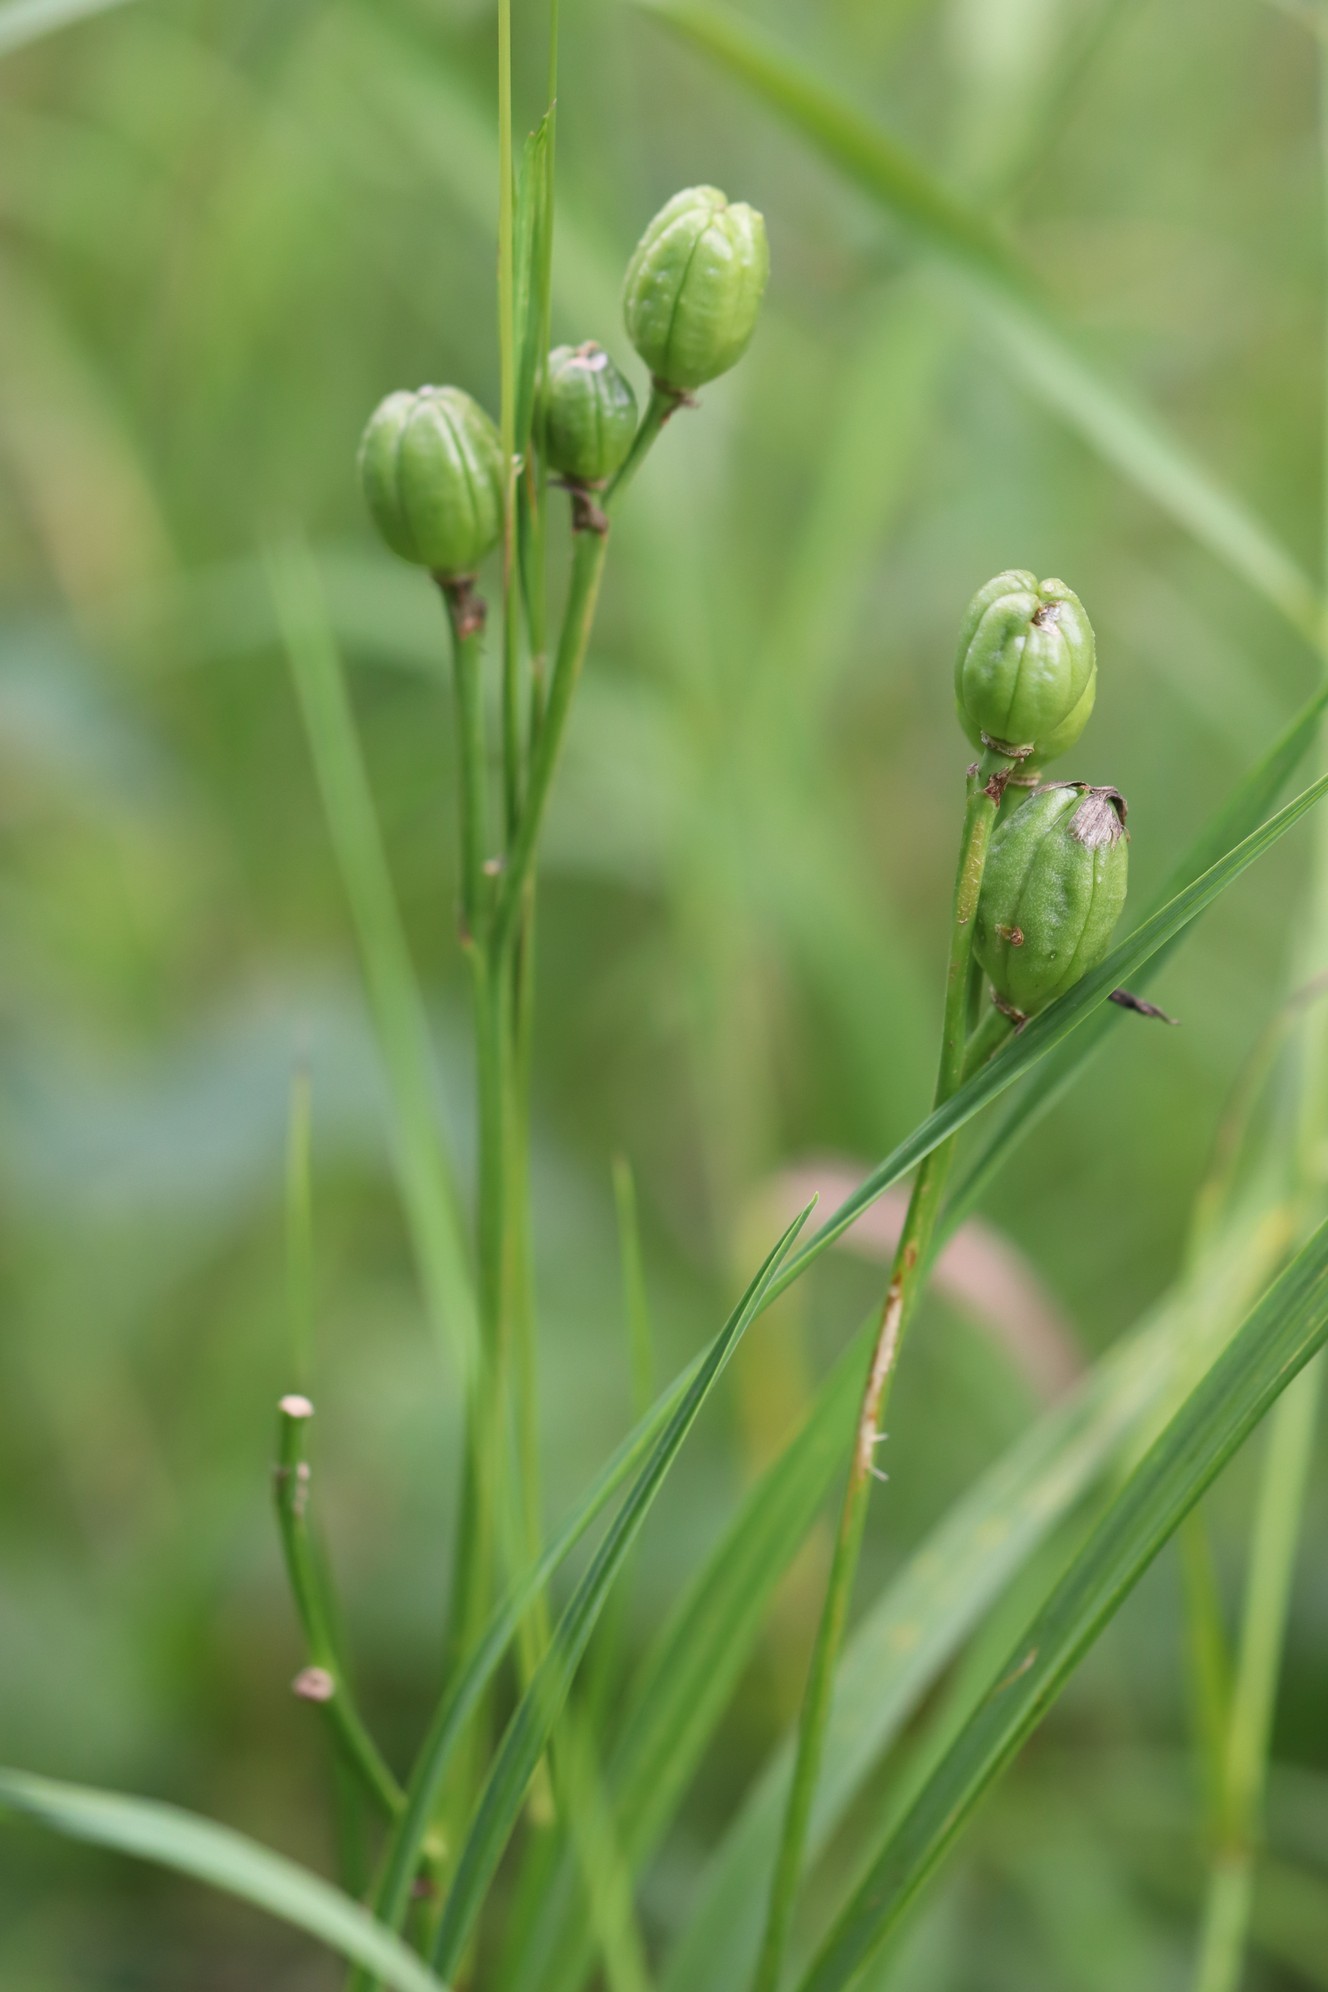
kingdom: Plantae
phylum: Tracheophyta
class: Liliopsida
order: Asparagales
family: Asphodelaceae
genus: Hemerocallis
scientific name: Hemerocallis minor
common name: Small daylily
